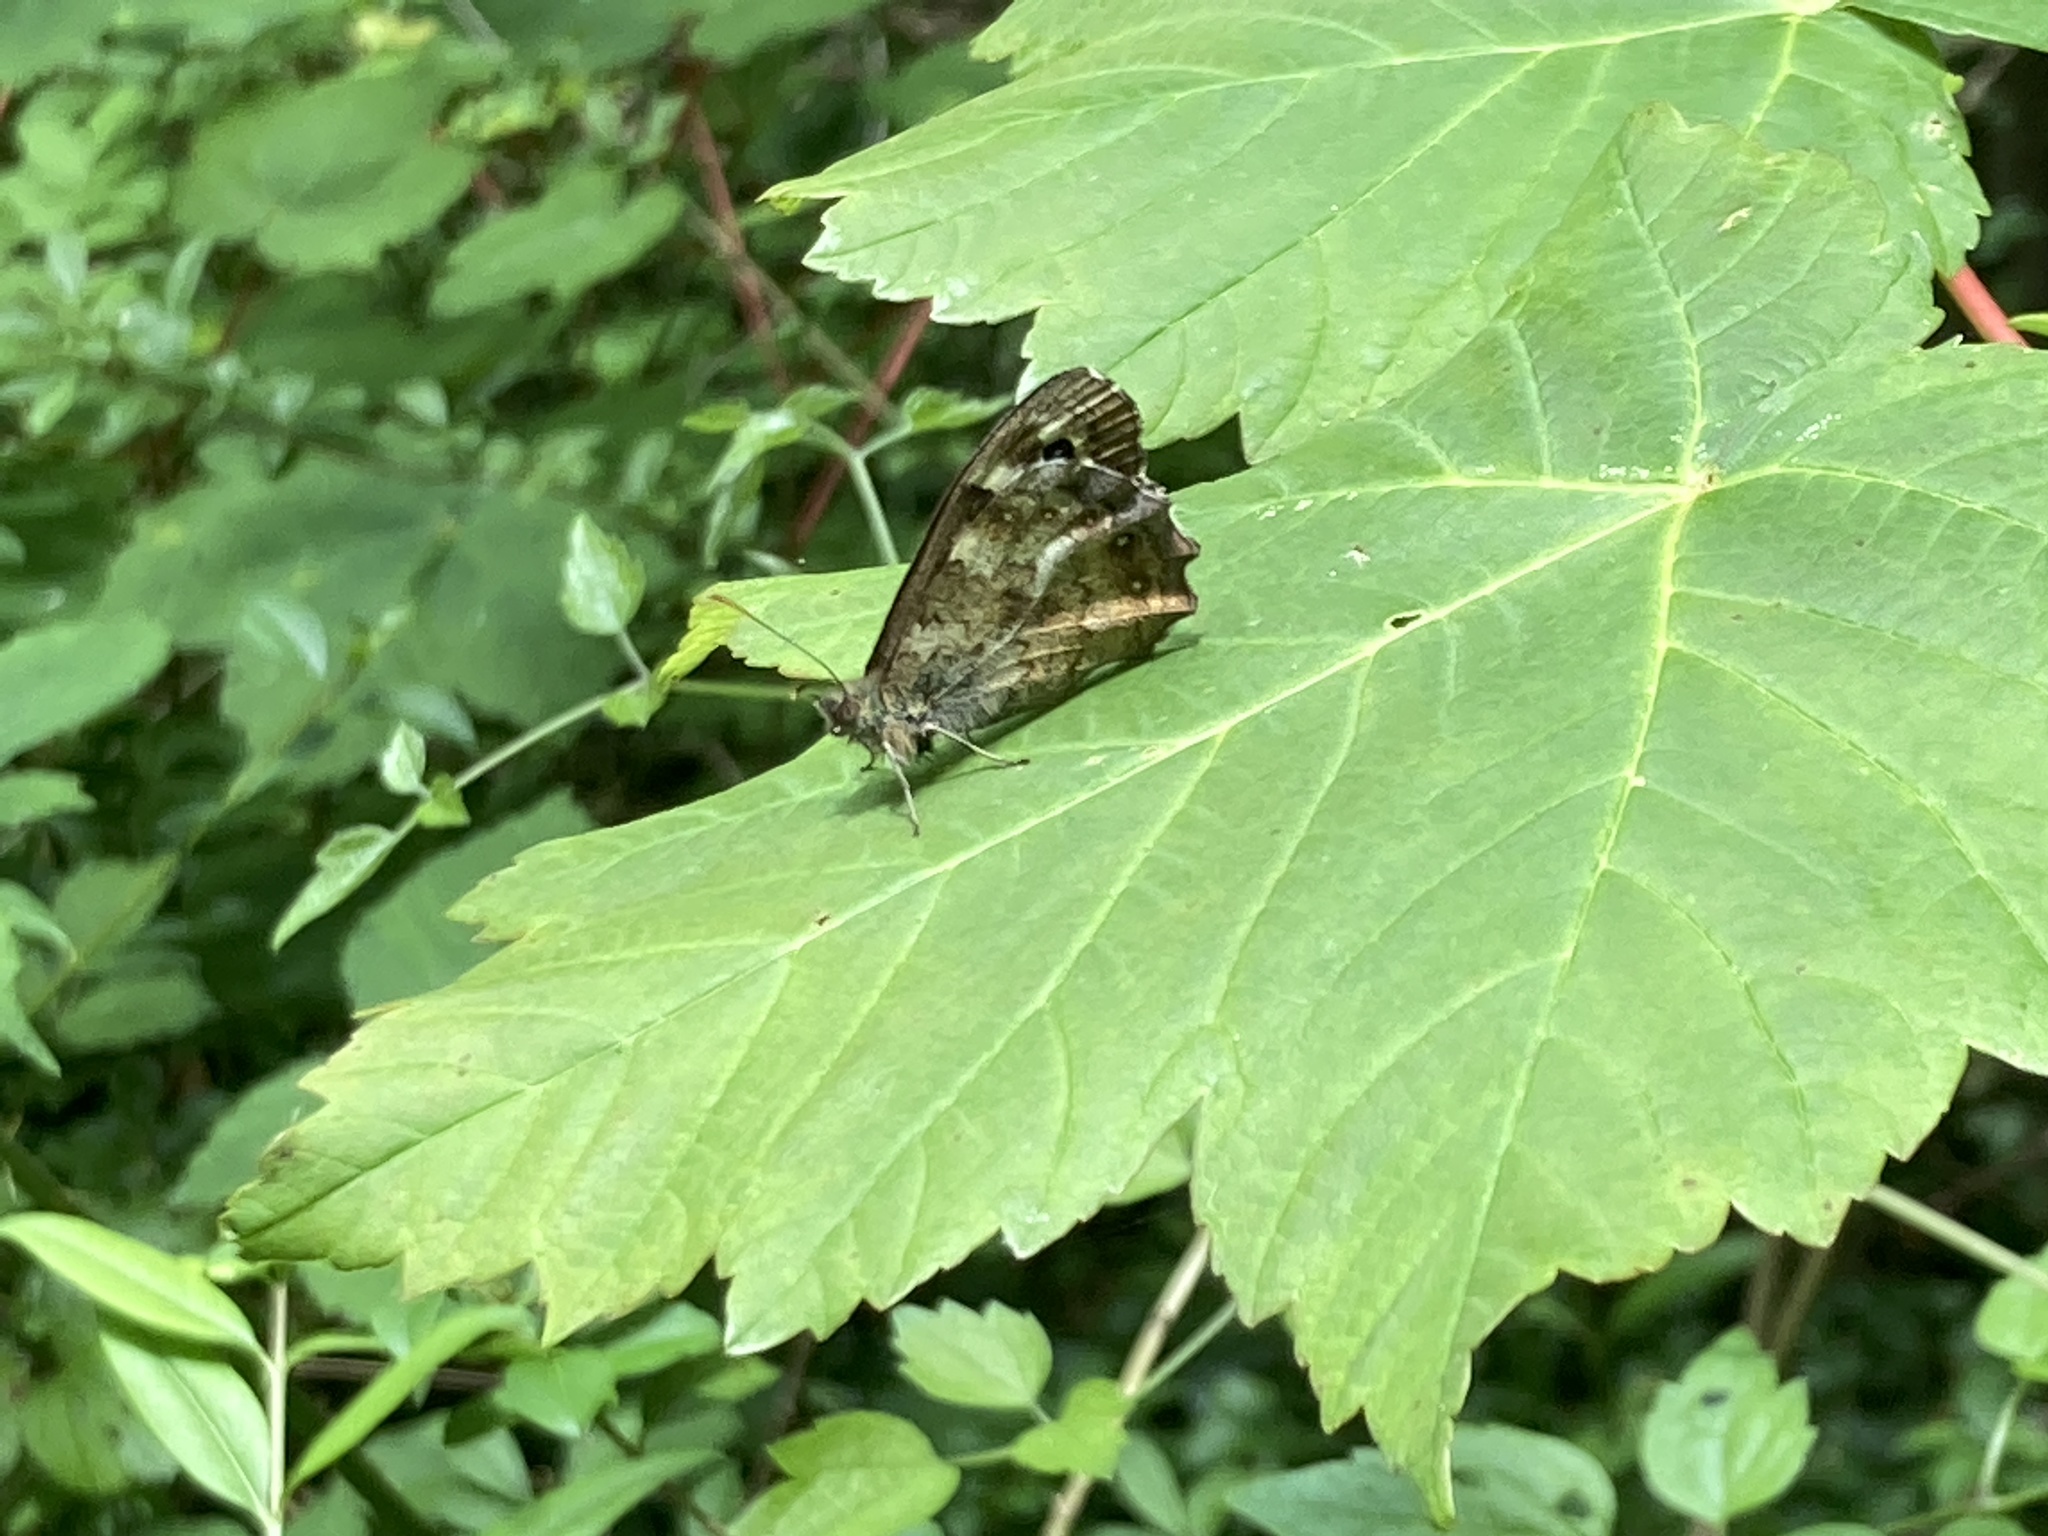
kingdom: Animalia
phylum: Arthropoda
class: Insecta
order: Lepidoptera
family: Nymphalidae
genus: Pararge
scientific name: Pararge aegeria
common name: Speckled wood
